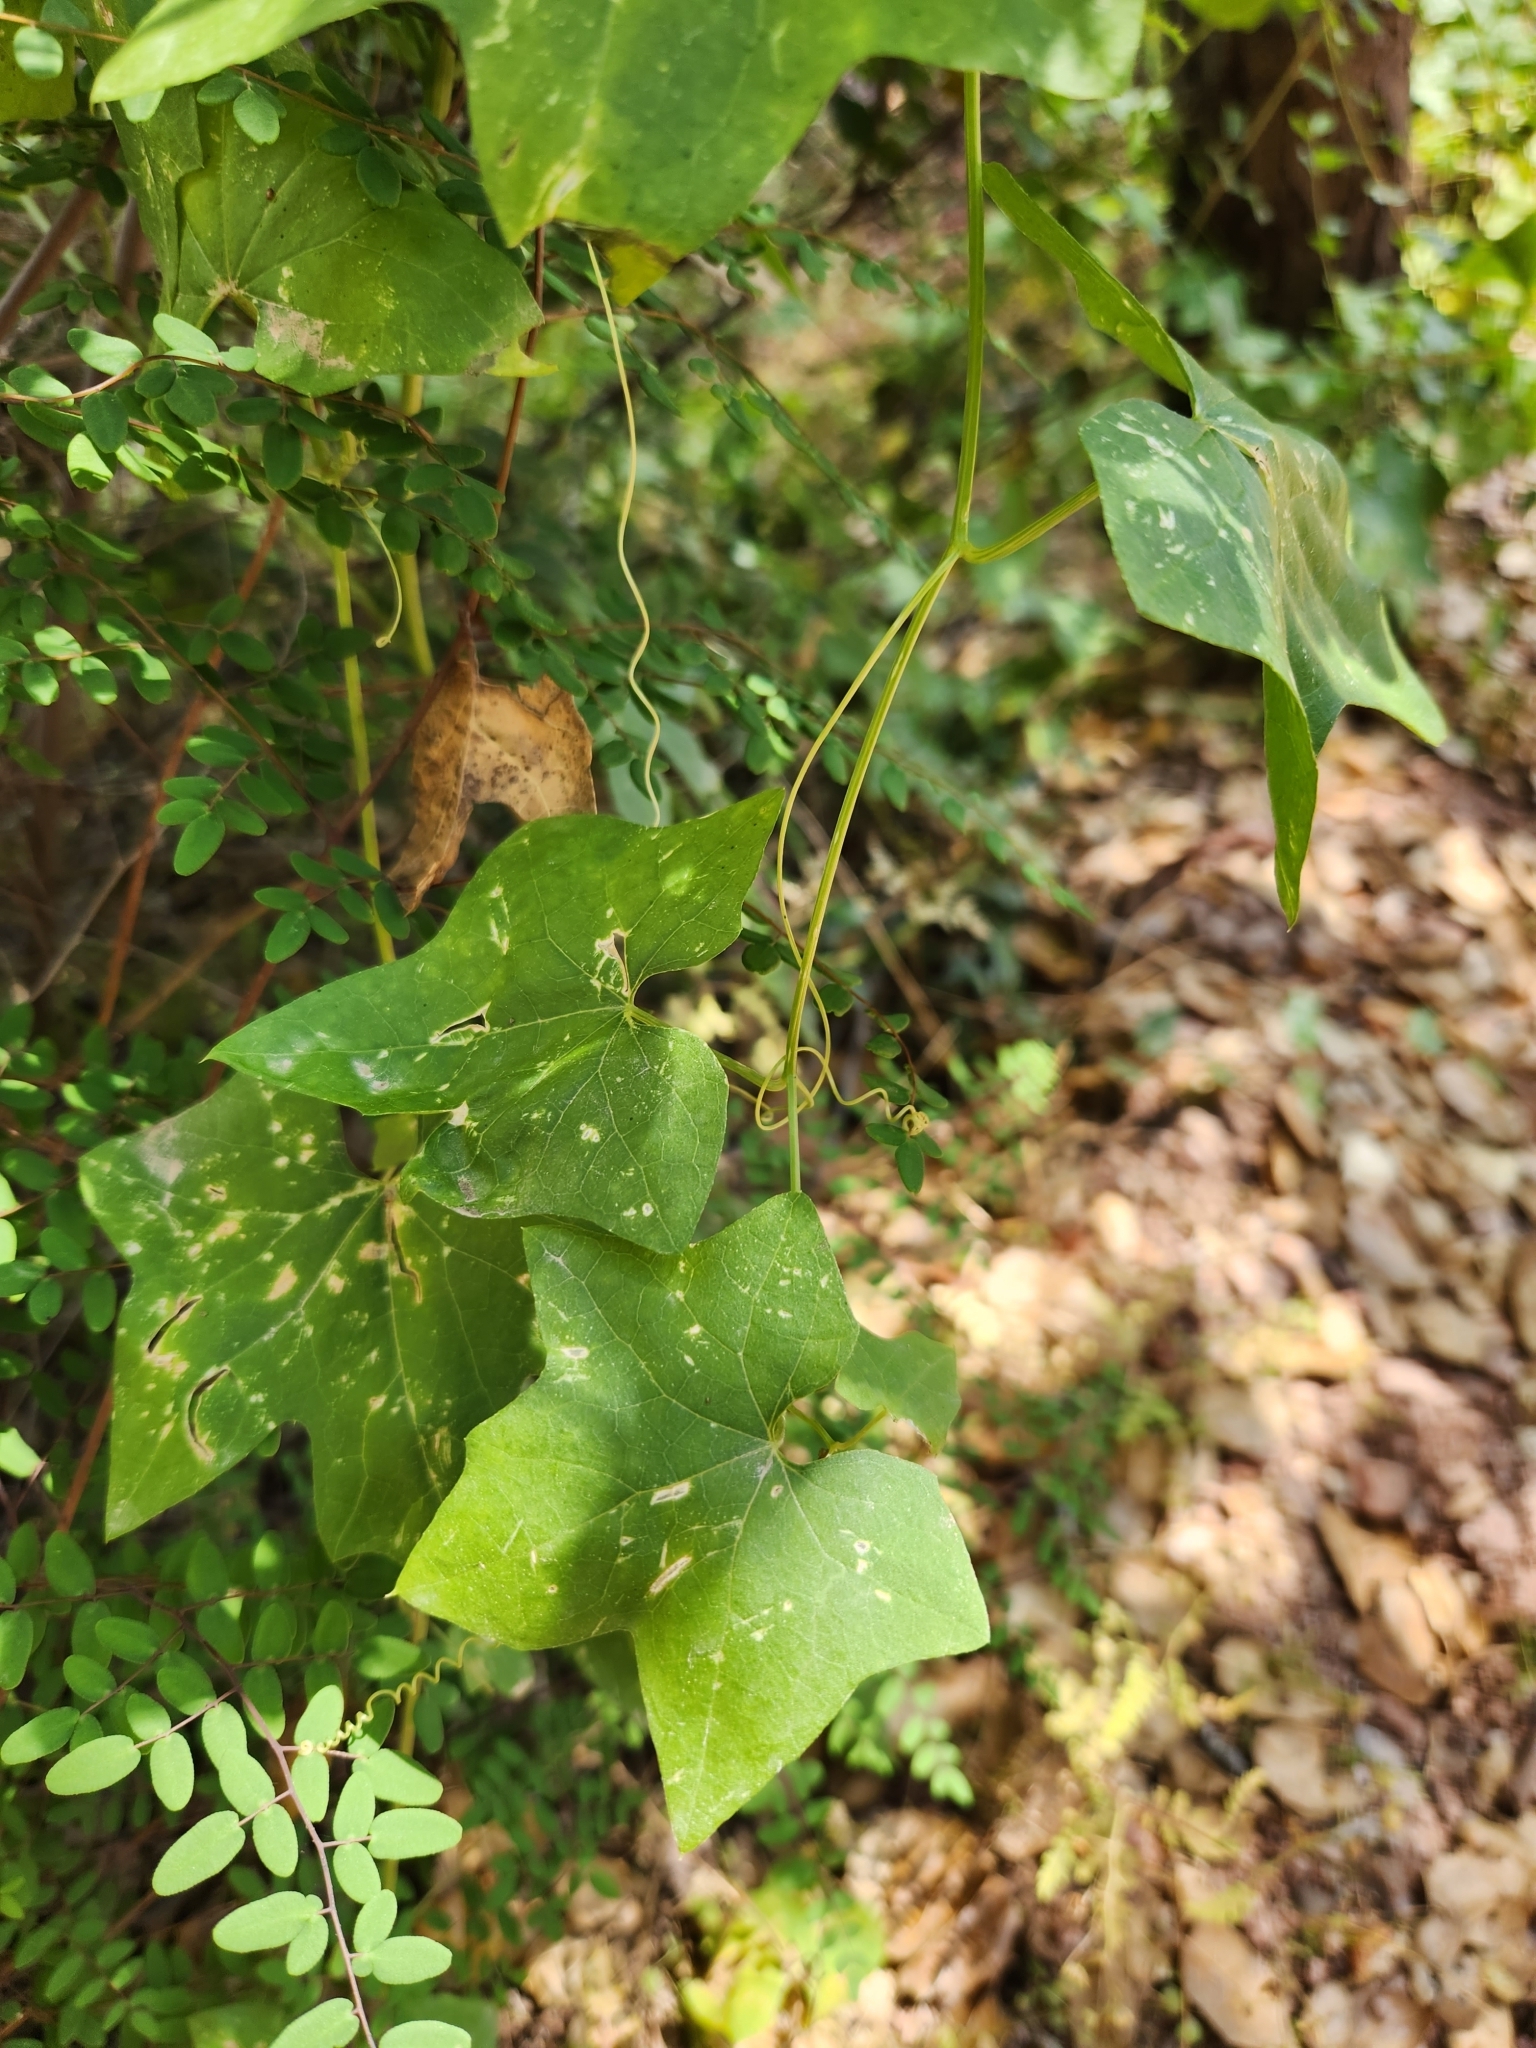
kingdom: Plantae
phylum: Tracheophyta
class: Magnoliopsida
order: Cucurbitales
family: Cucurbitaceae
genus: Marah
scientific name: Marah fabacea
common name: California manroot
